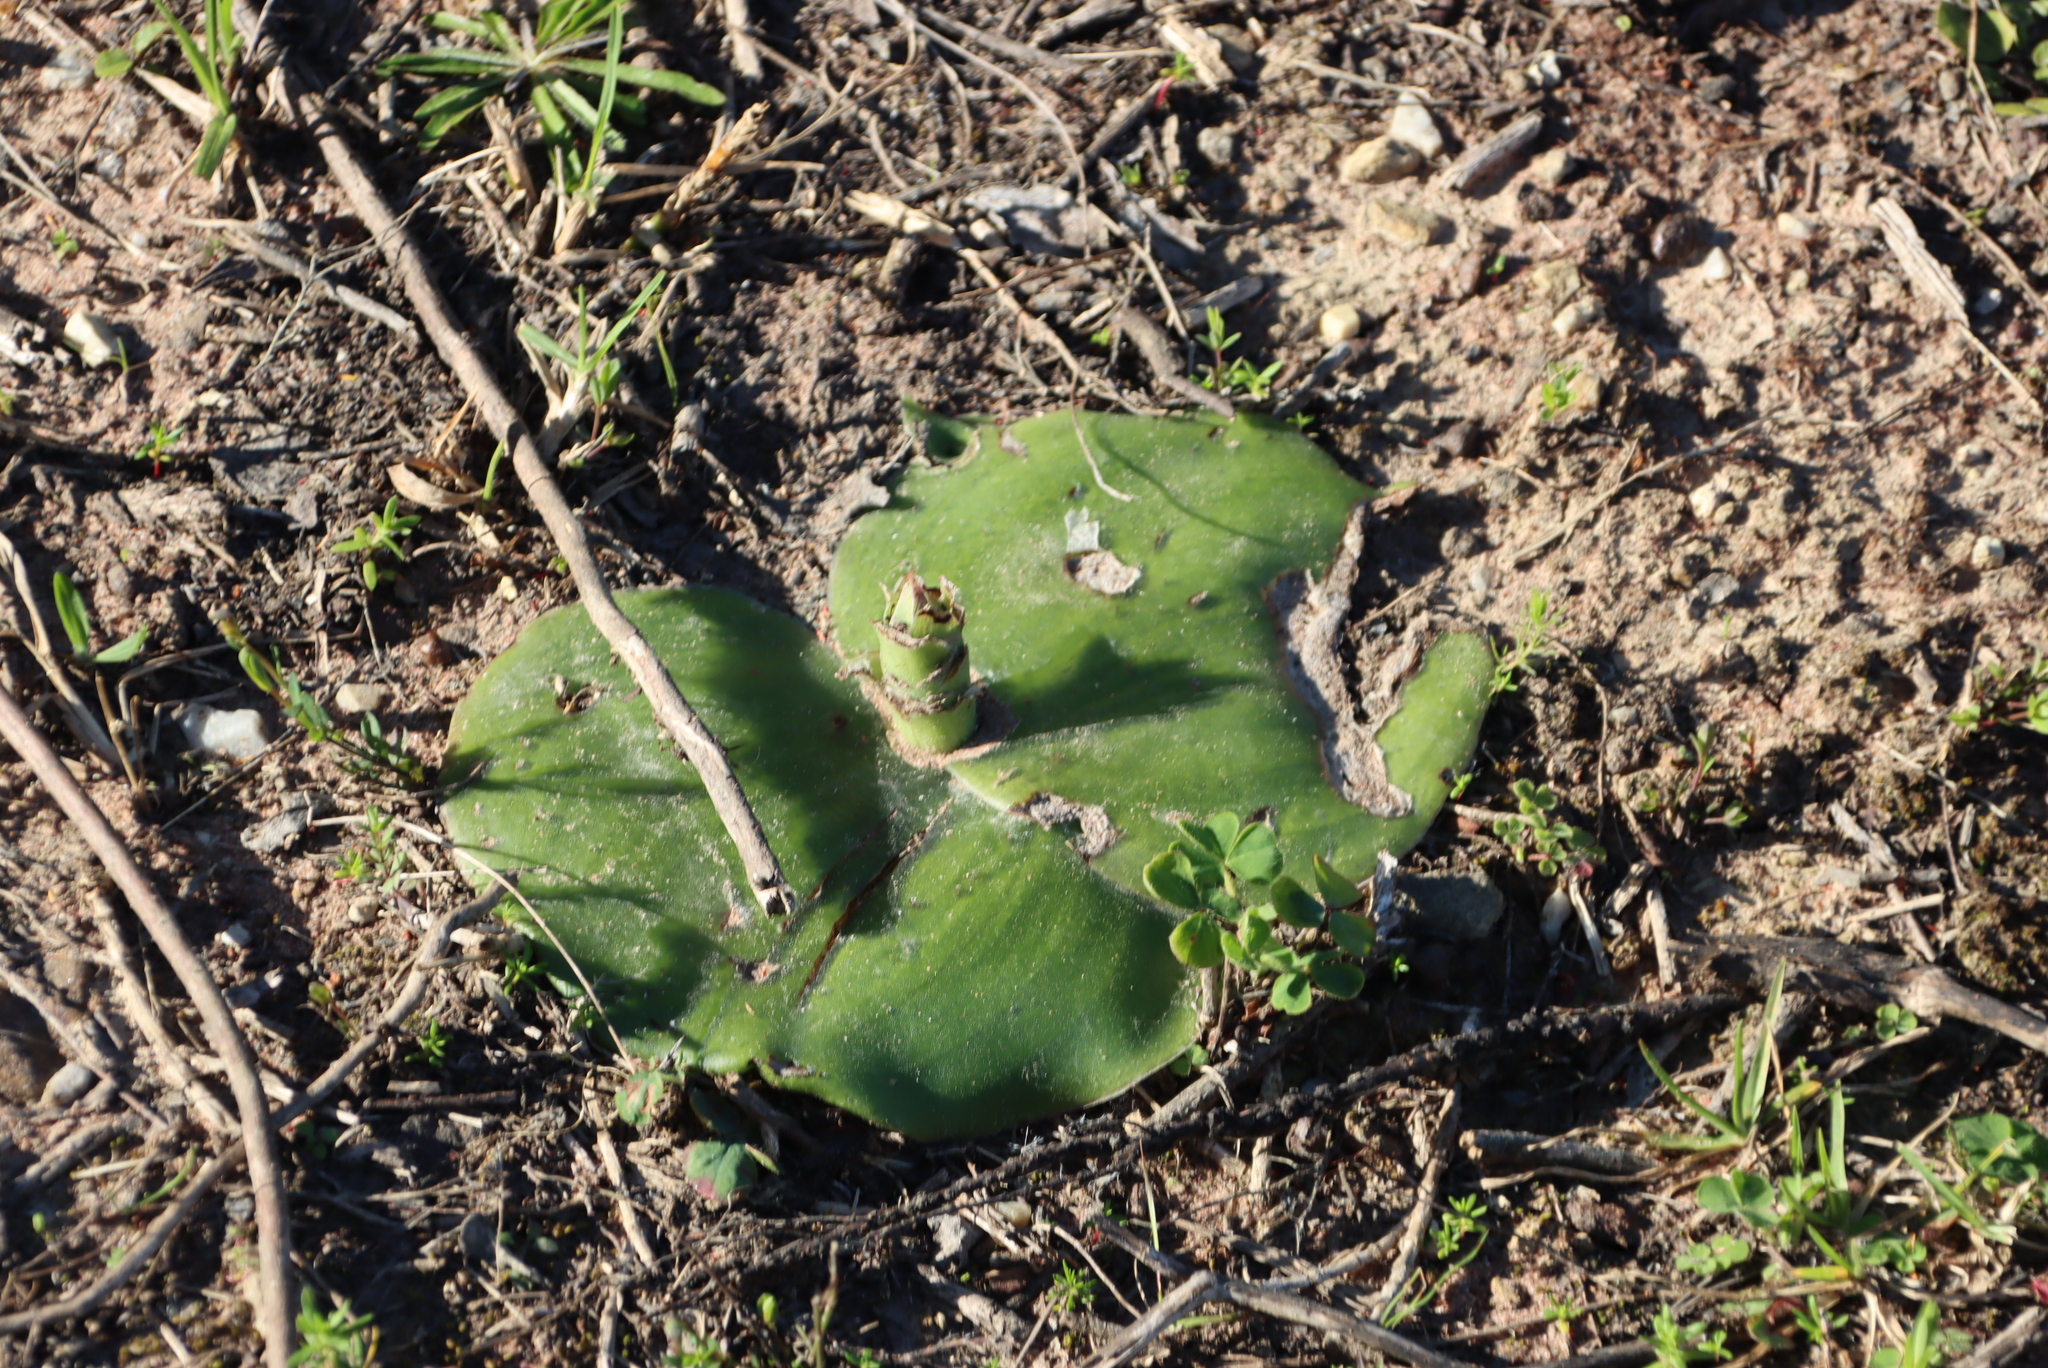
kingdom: Plantae
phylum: Tracheophyta
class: Liliopsida
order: Asparagales
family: Orchidaceae
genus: Satyrium
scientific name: Satyrium membranaceum
